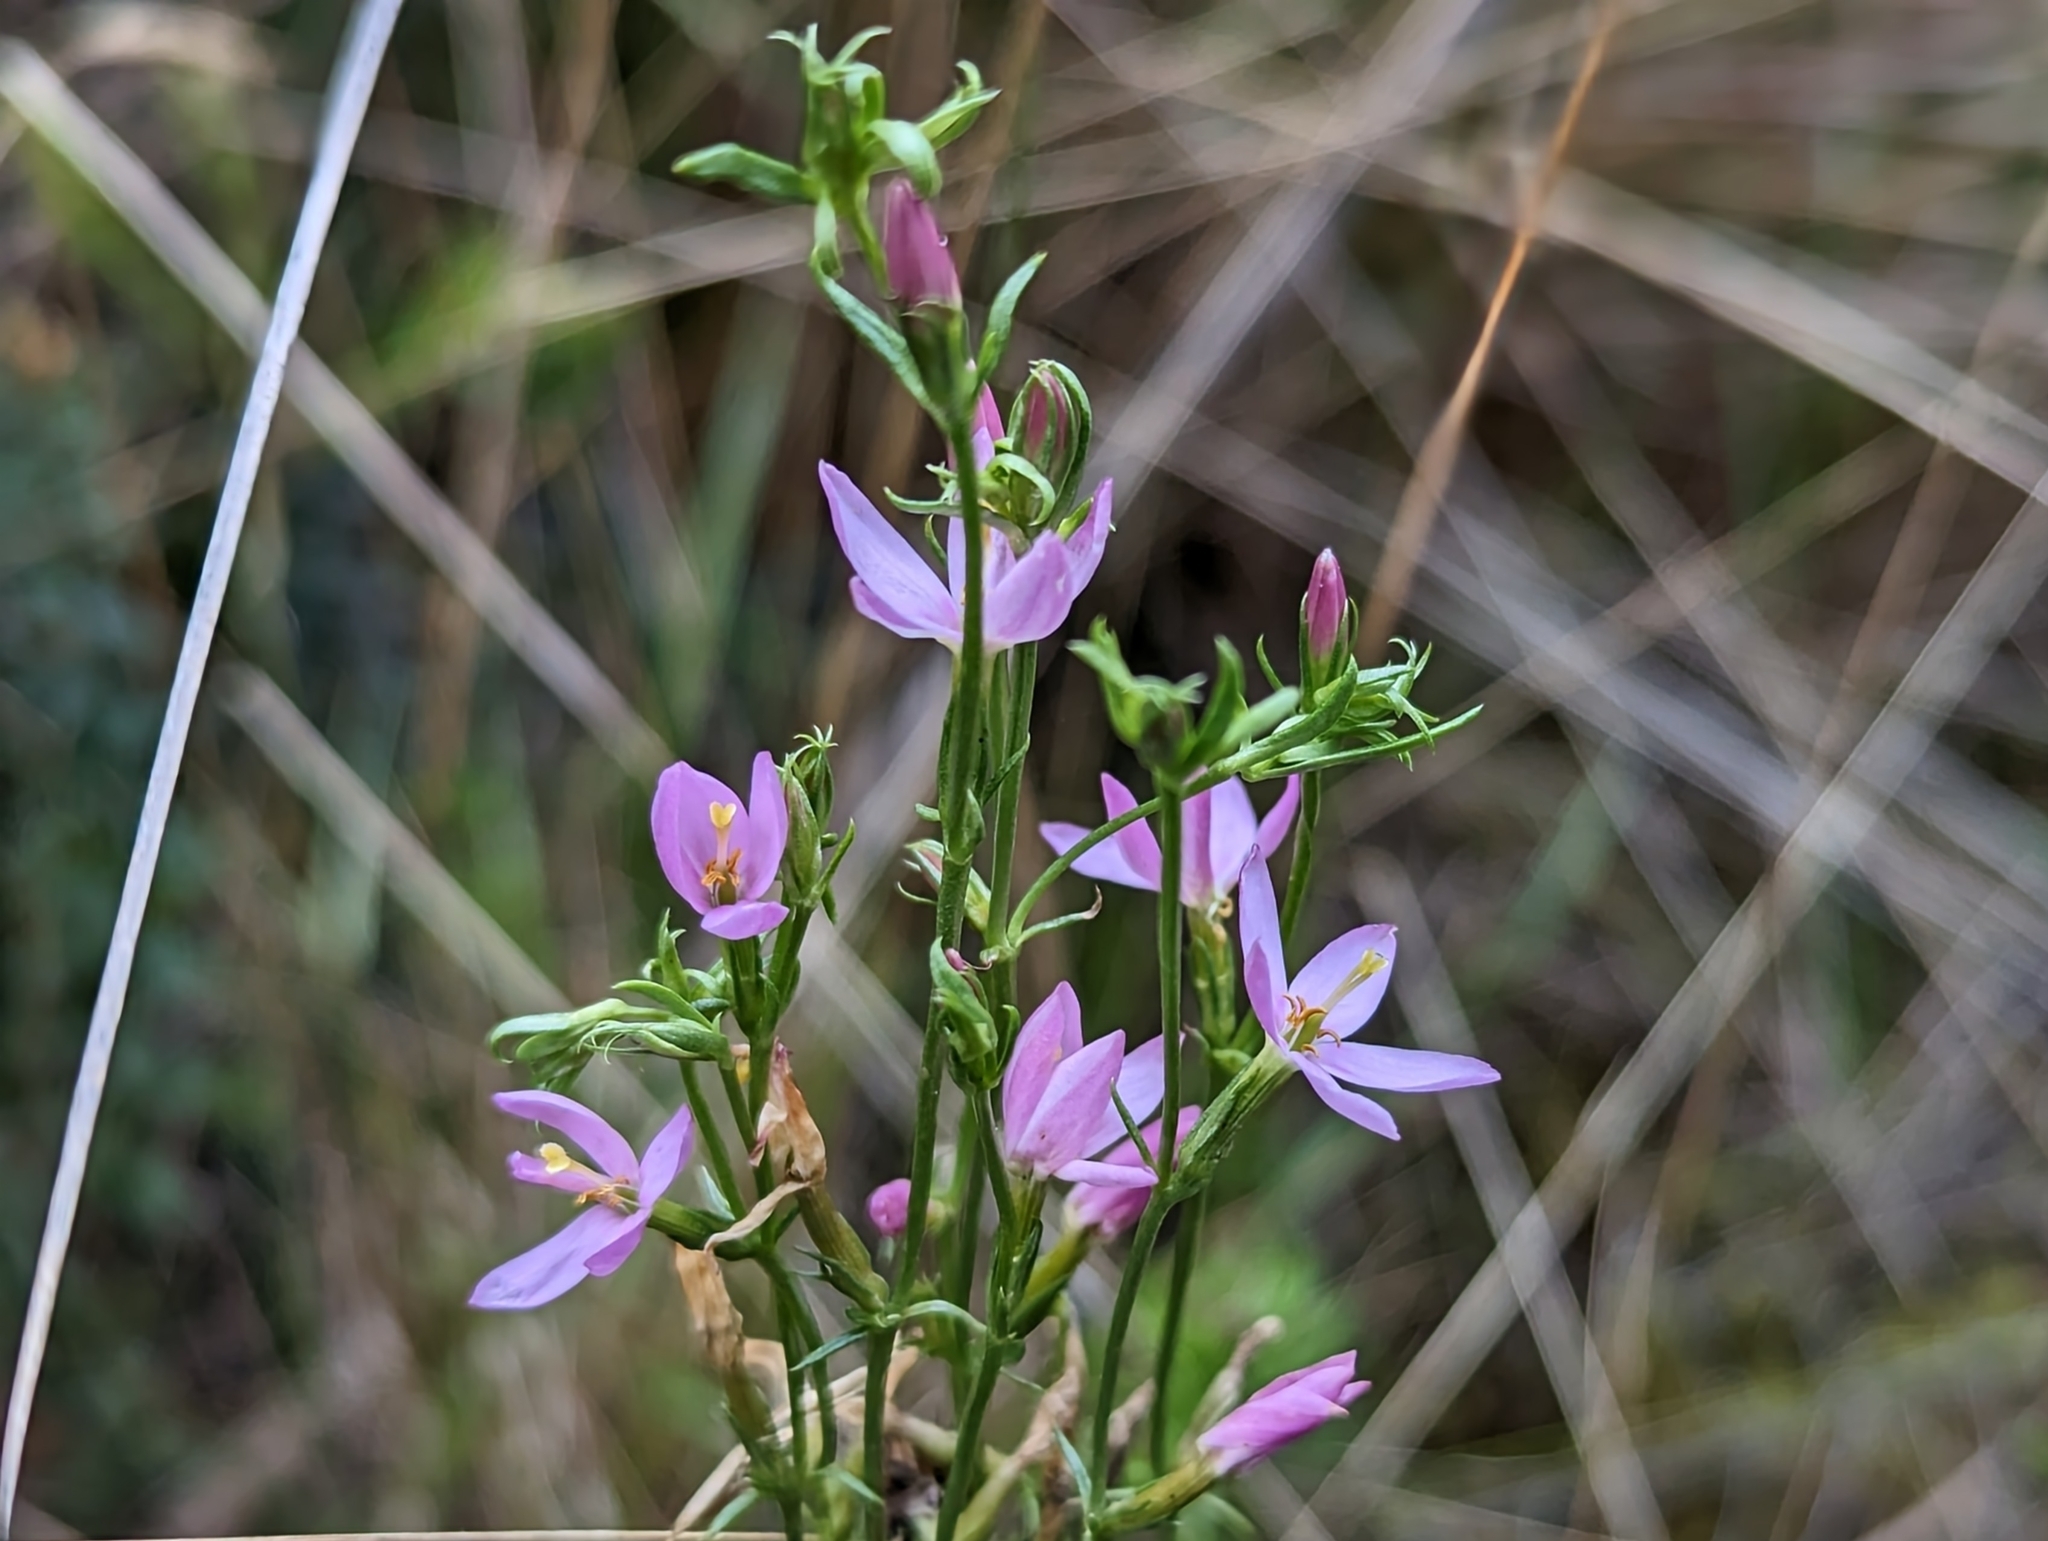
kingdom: Plantae
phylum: Tracheophyta
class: Magnoliopsida
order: Gentianales
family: Gentianaceae
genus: Centaurium
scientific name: Centaurium erythraea
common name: Common centaury
